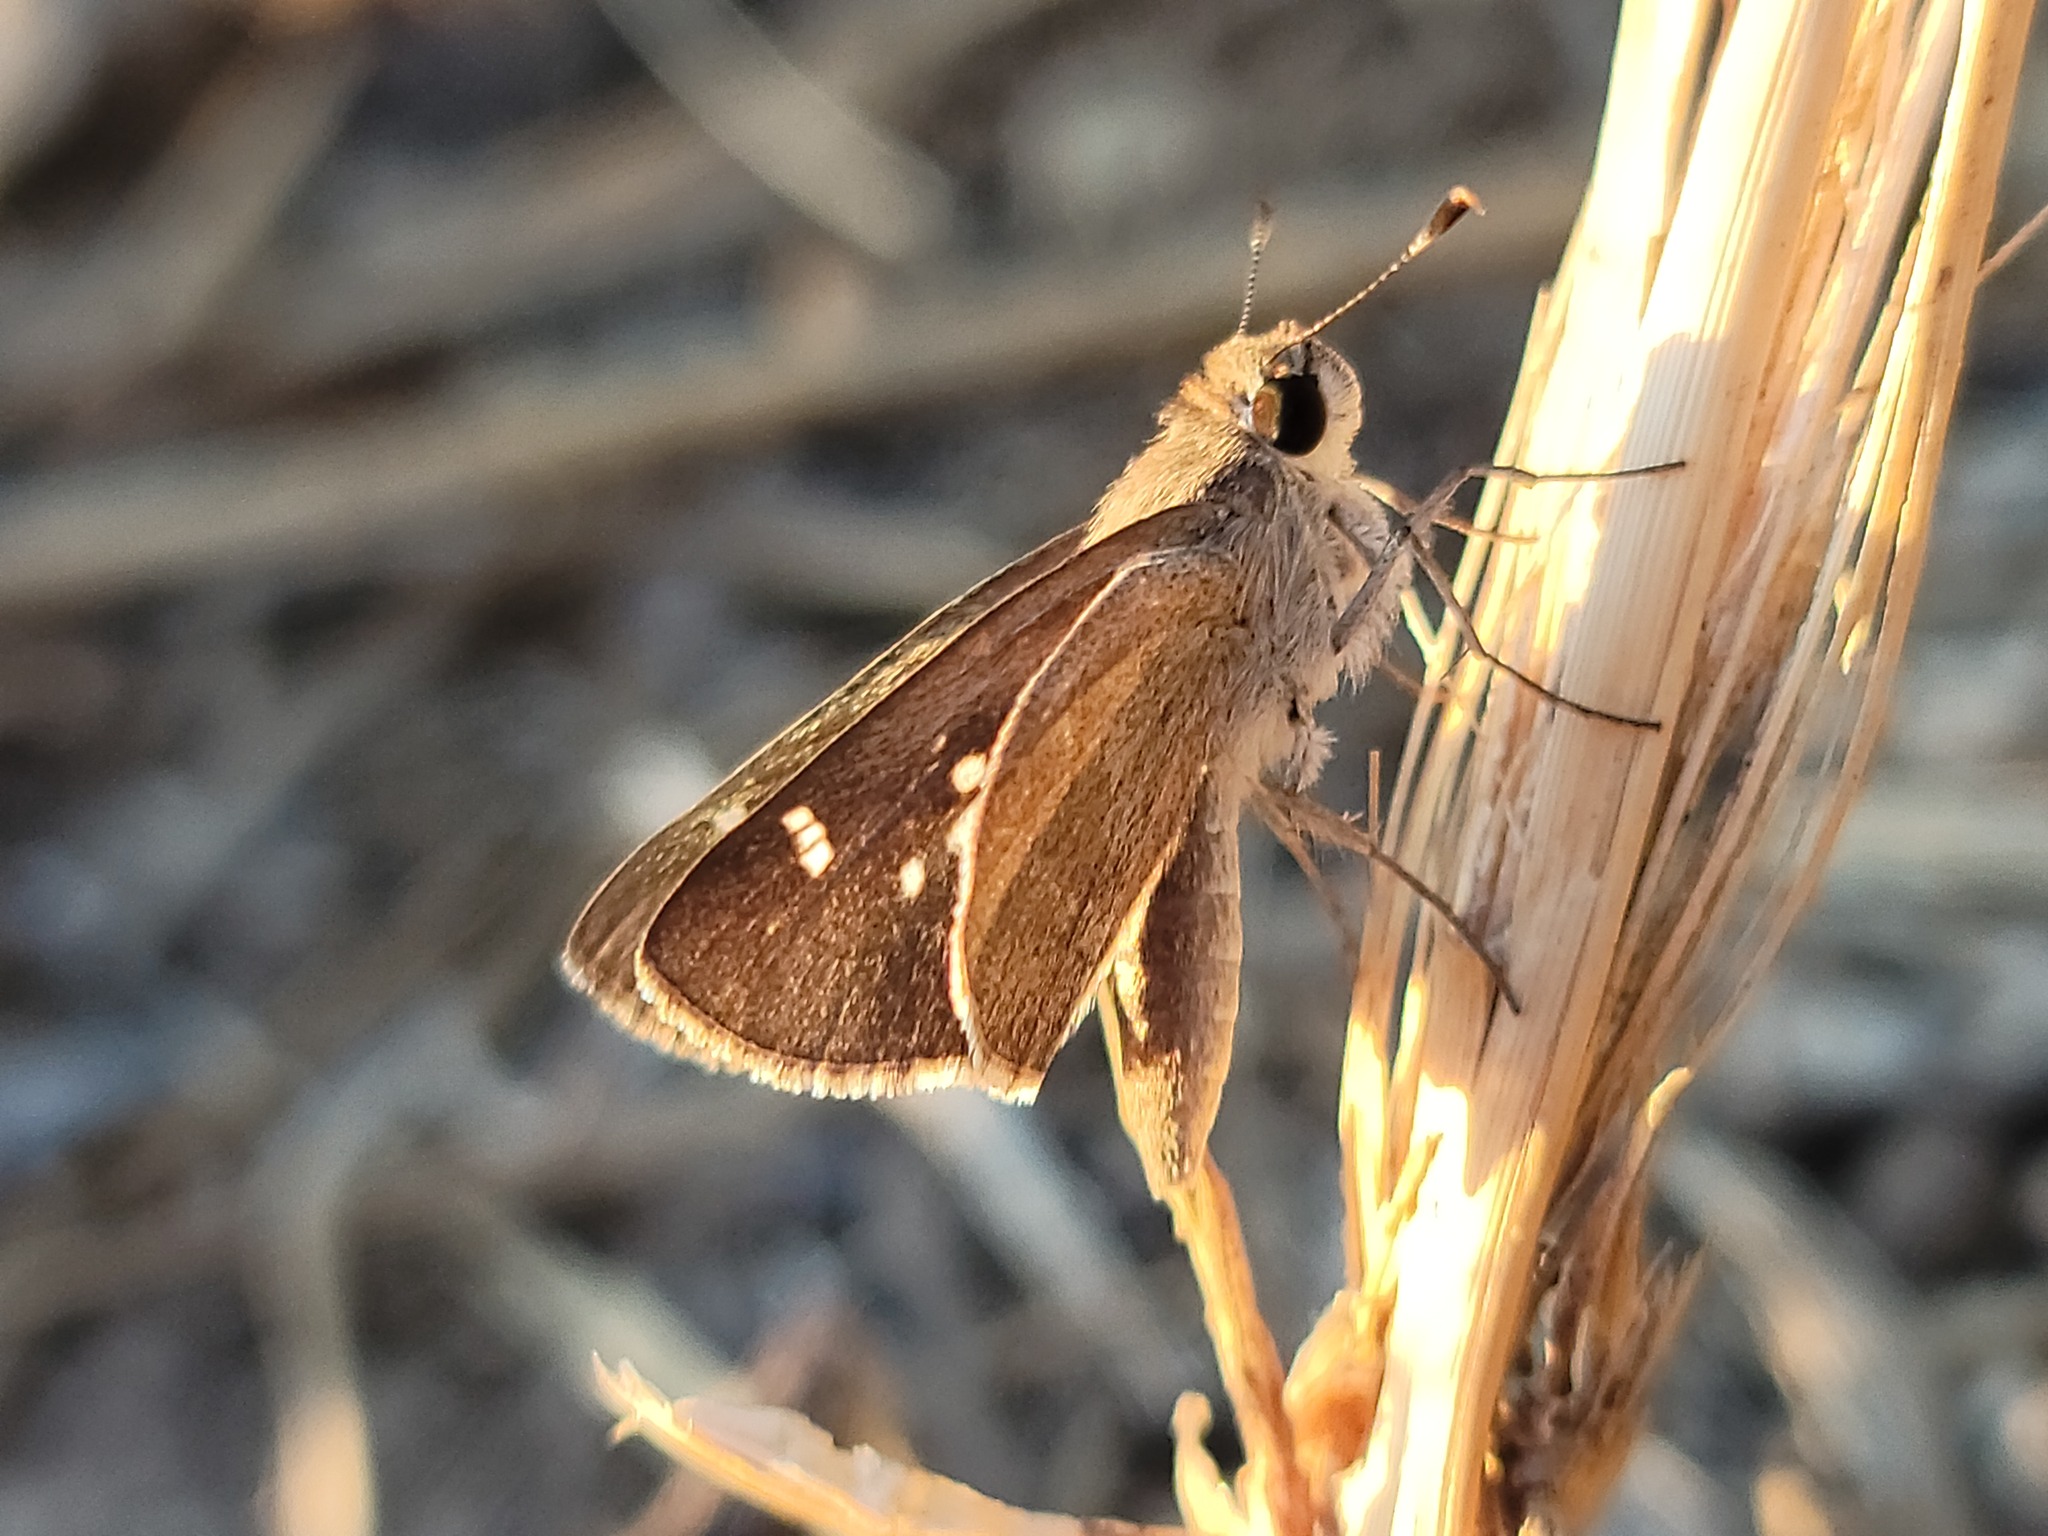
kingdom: Animalia
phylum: Arthropoda
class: Insecta
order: Lepidoptera
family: Hesperiidae
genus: Lerodea
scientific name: Lerodea arabus
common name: Violet-clouded skipper
